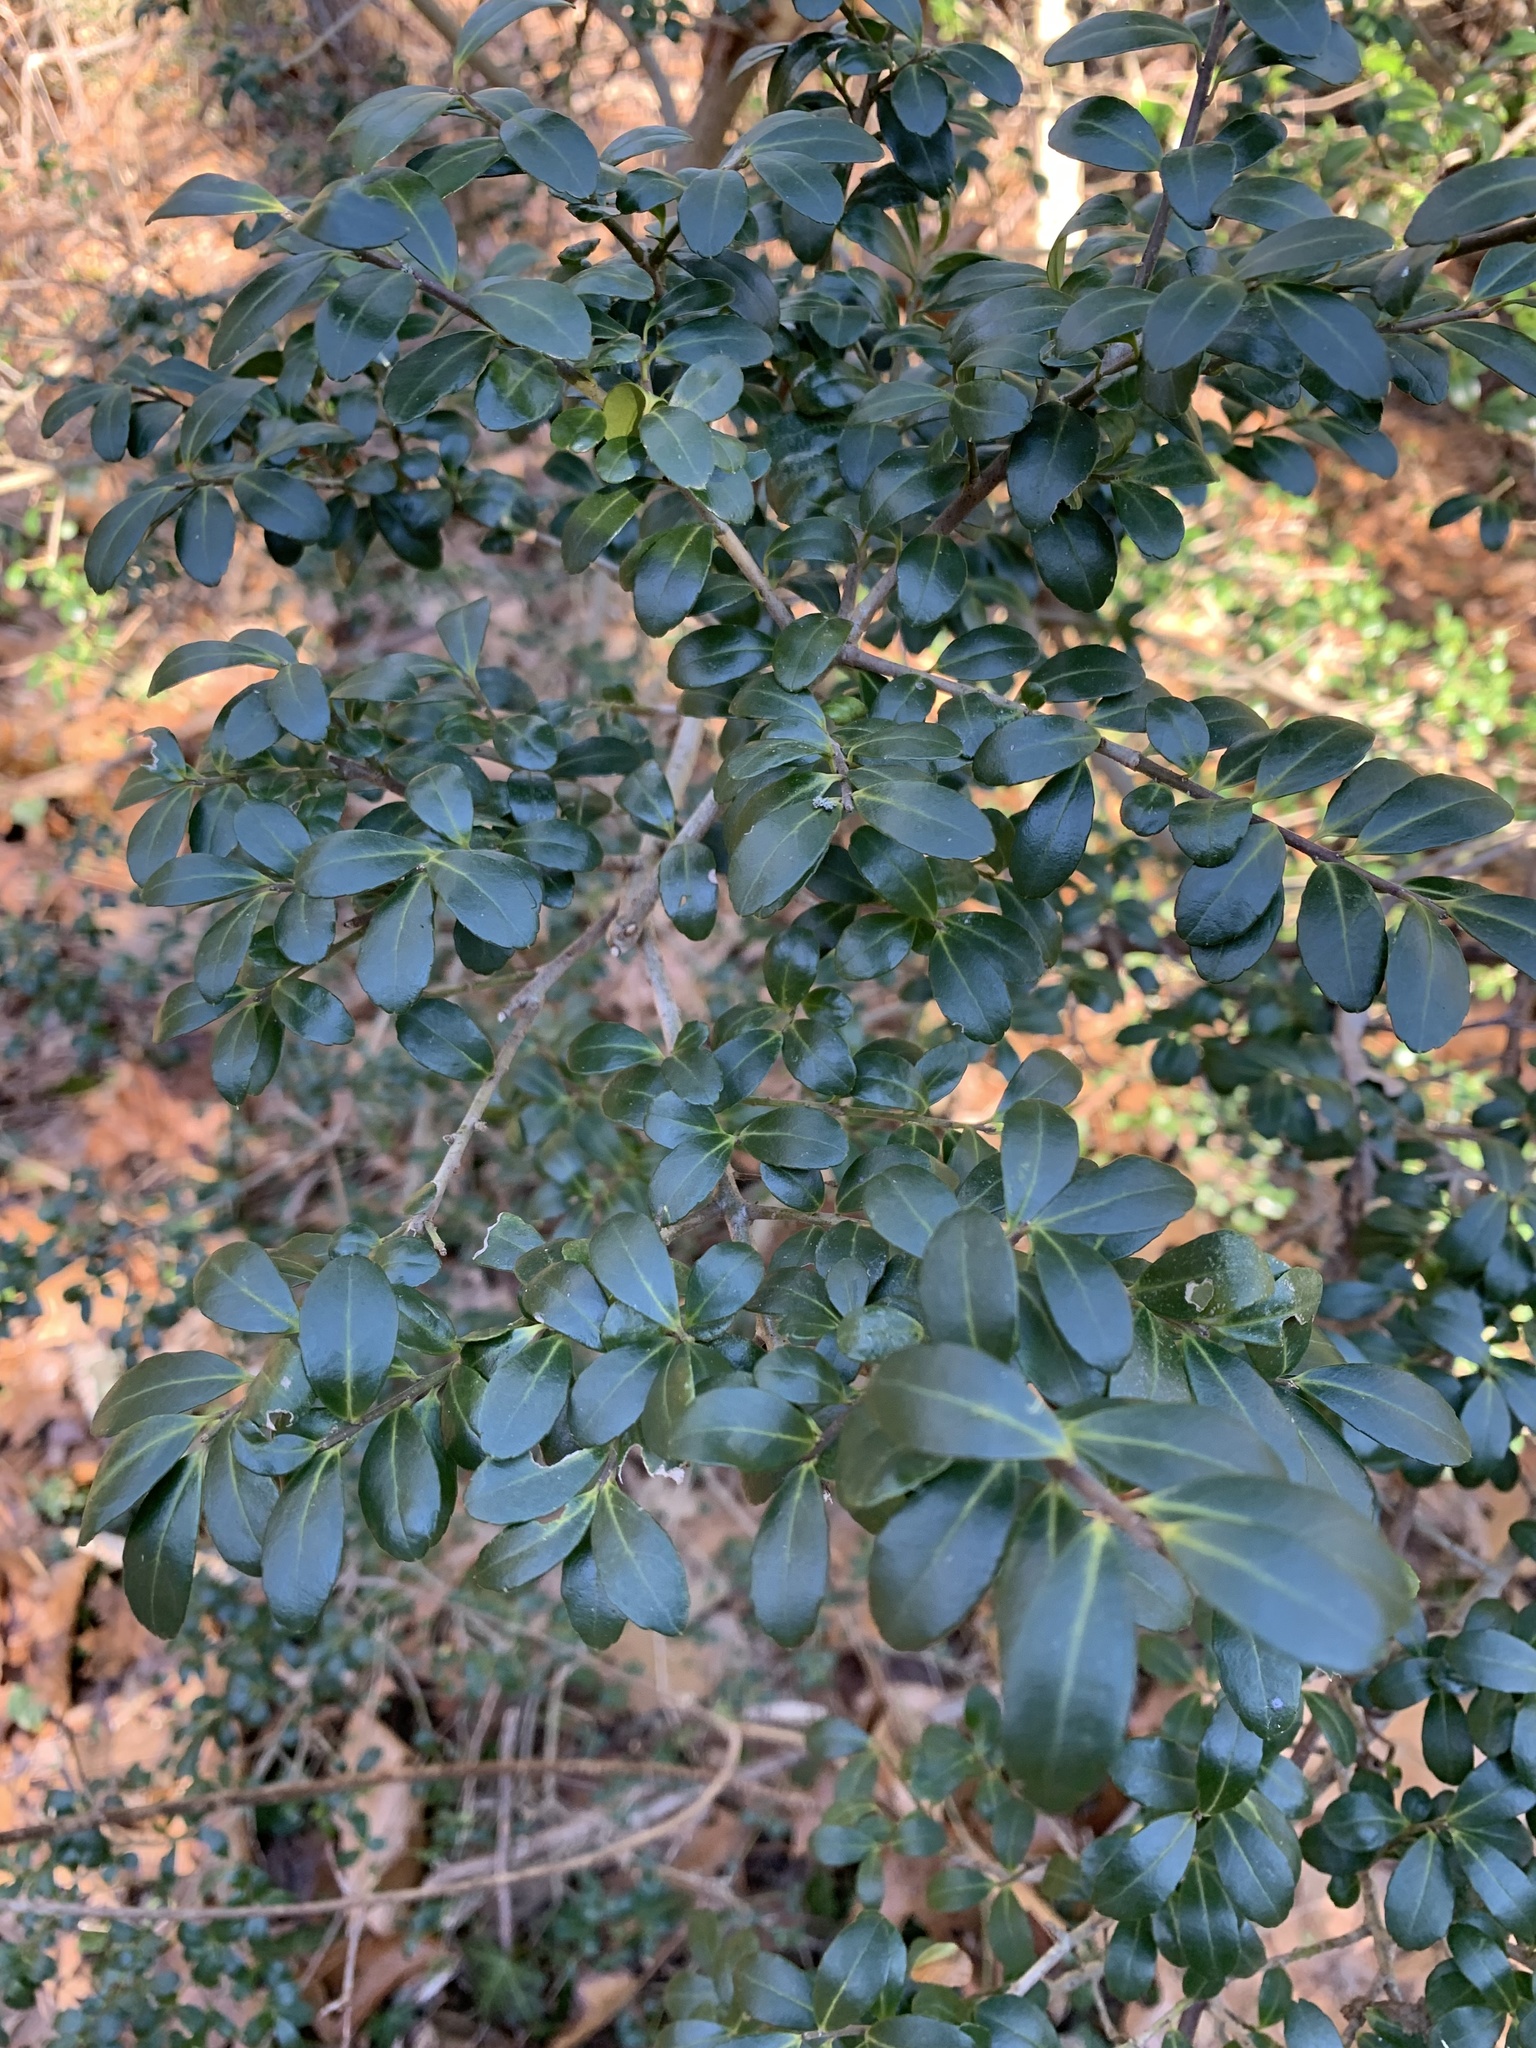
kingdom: Plantae
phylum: Tracheophyta
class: Magnoliopsida
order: Aquifoliales
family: Aquifoliaceae
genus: Ilex
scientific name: Ilex crenata
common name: Japanese holly
